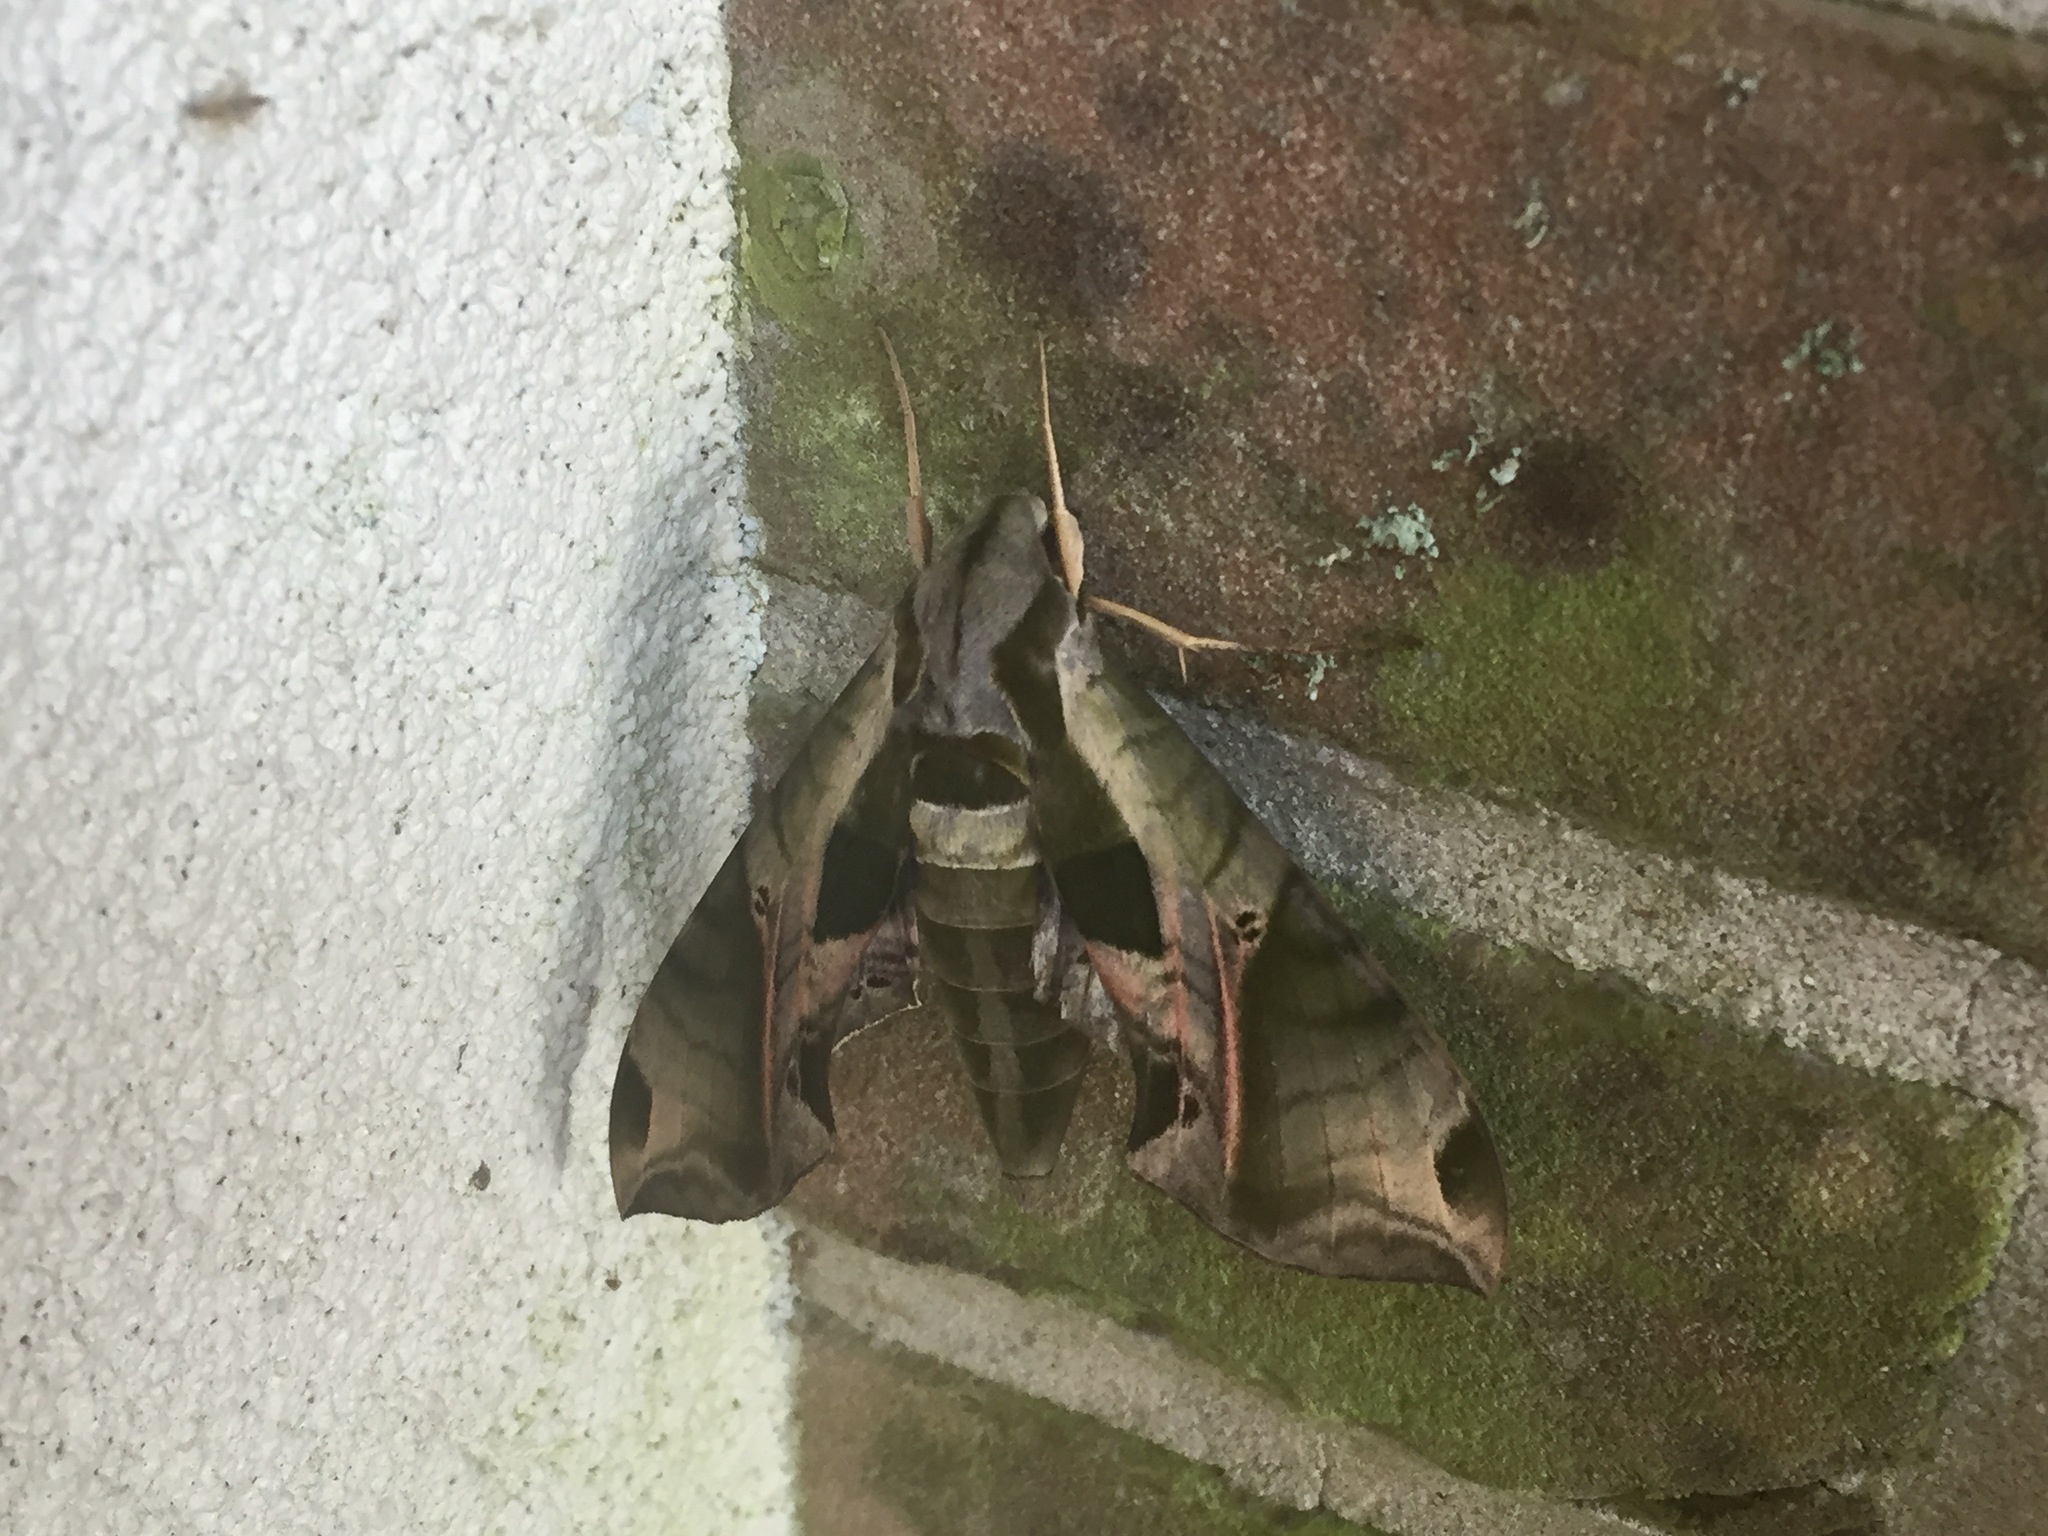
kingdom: Animalia
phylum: Arthropoda
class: Insecta
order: Lepidoptera
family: Sphingidae
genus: Eumorpha
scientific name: Eumorpha pandorus
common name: Pandora sphinx
